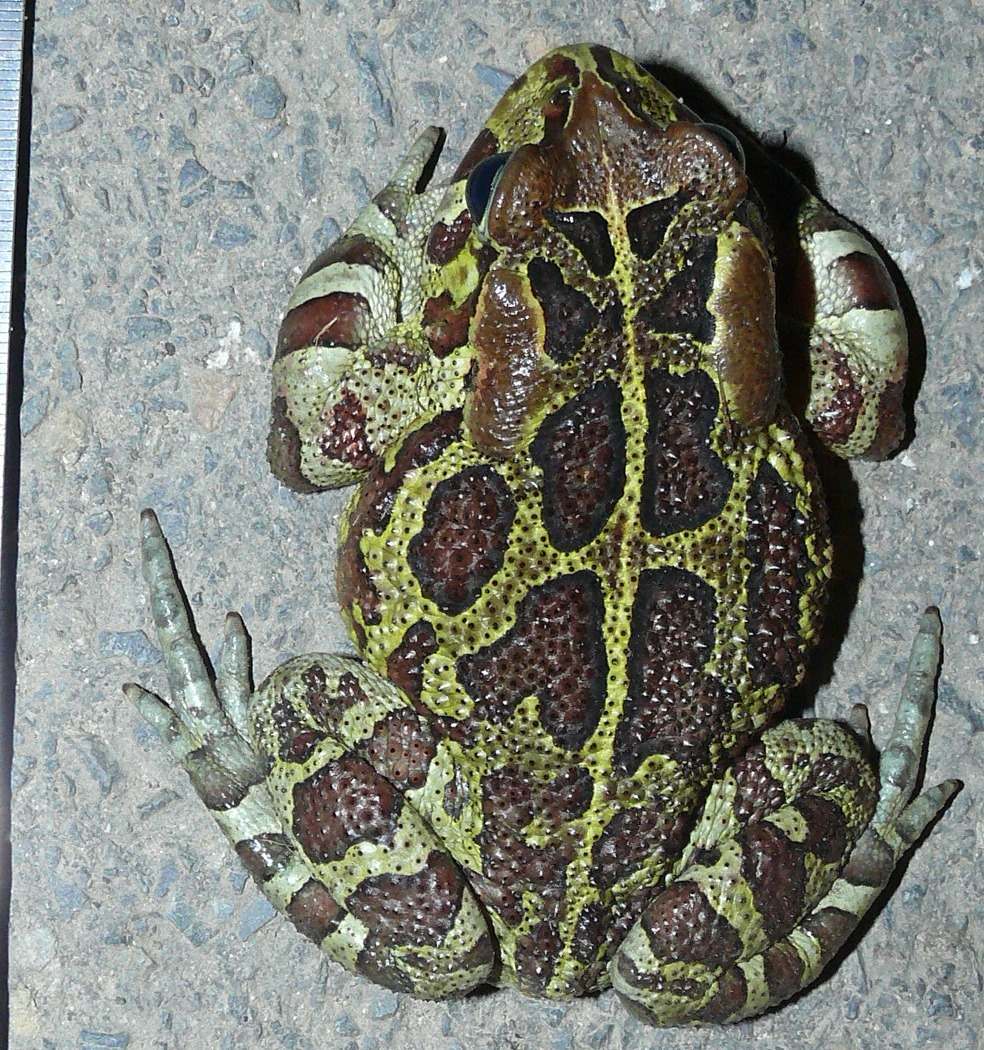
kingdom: Animalia
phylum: Chordata
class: Amphibia
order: Anura
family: Bufonidae
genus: Sclerophrys
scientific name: Sclerophrys pantherina
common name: Panther toad
